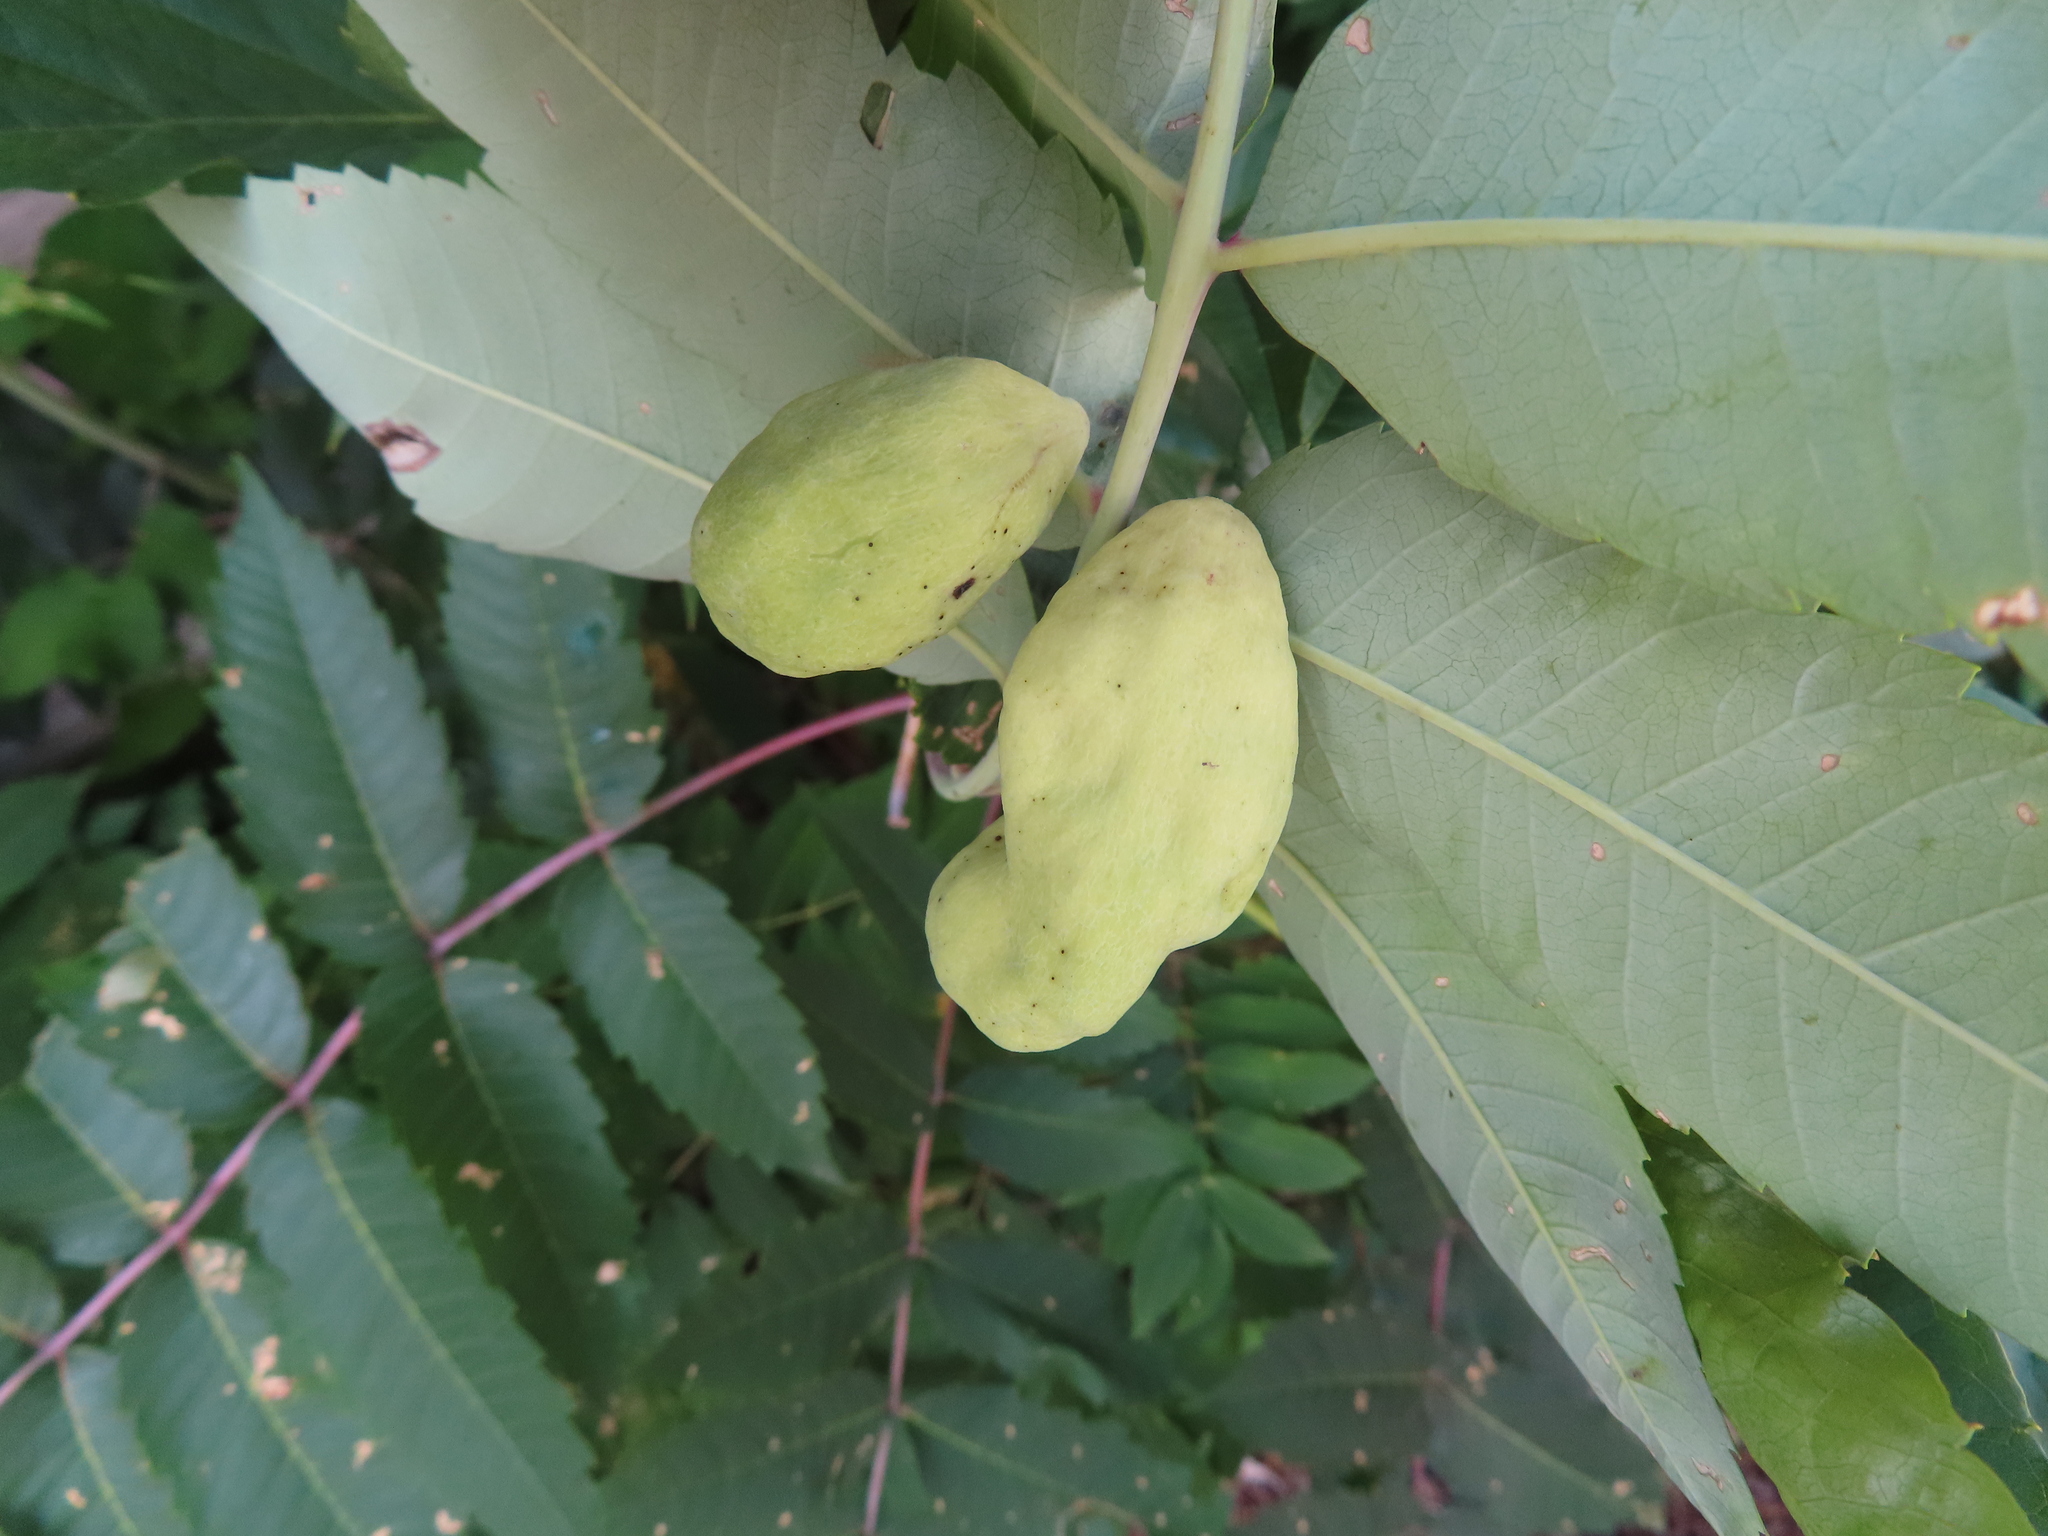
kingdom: Animalia
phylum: Arthropoda
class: Insecta
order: Hemiptera
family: Aphididae
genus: Melaphis
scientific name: Melaphis rhois
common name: Sumac gall aphid
